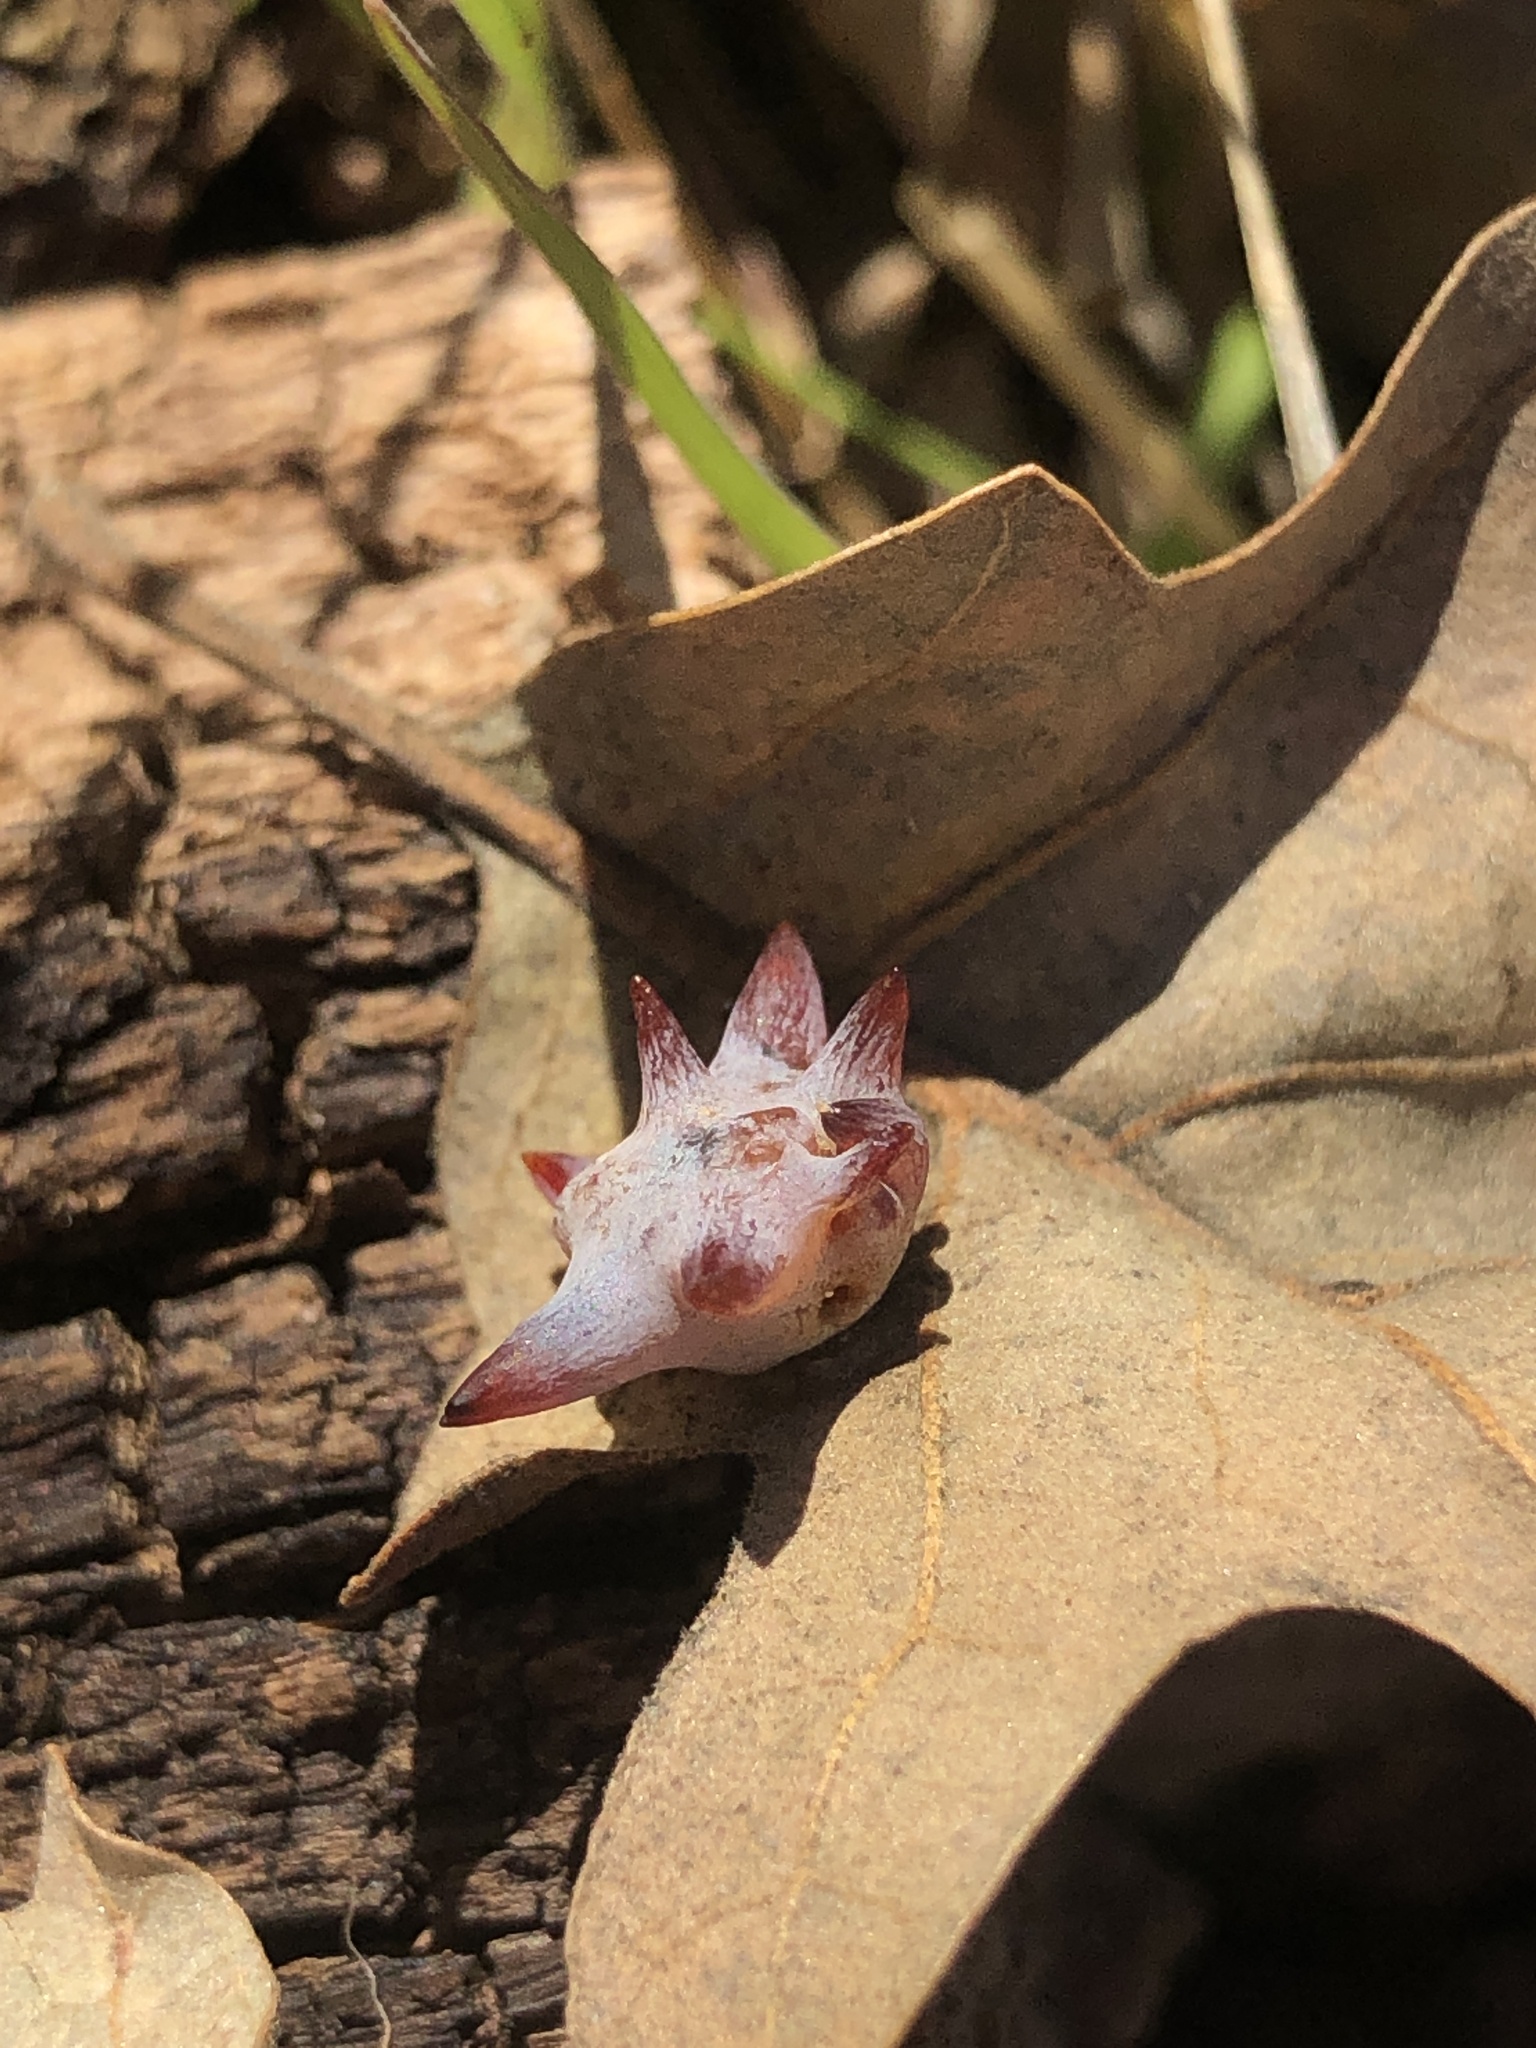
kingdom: Animalia
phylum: Arthropoda
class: Insecta
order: Hymenoptera
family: Cynipidae
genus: Cynips
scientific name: Cynips douglasi
